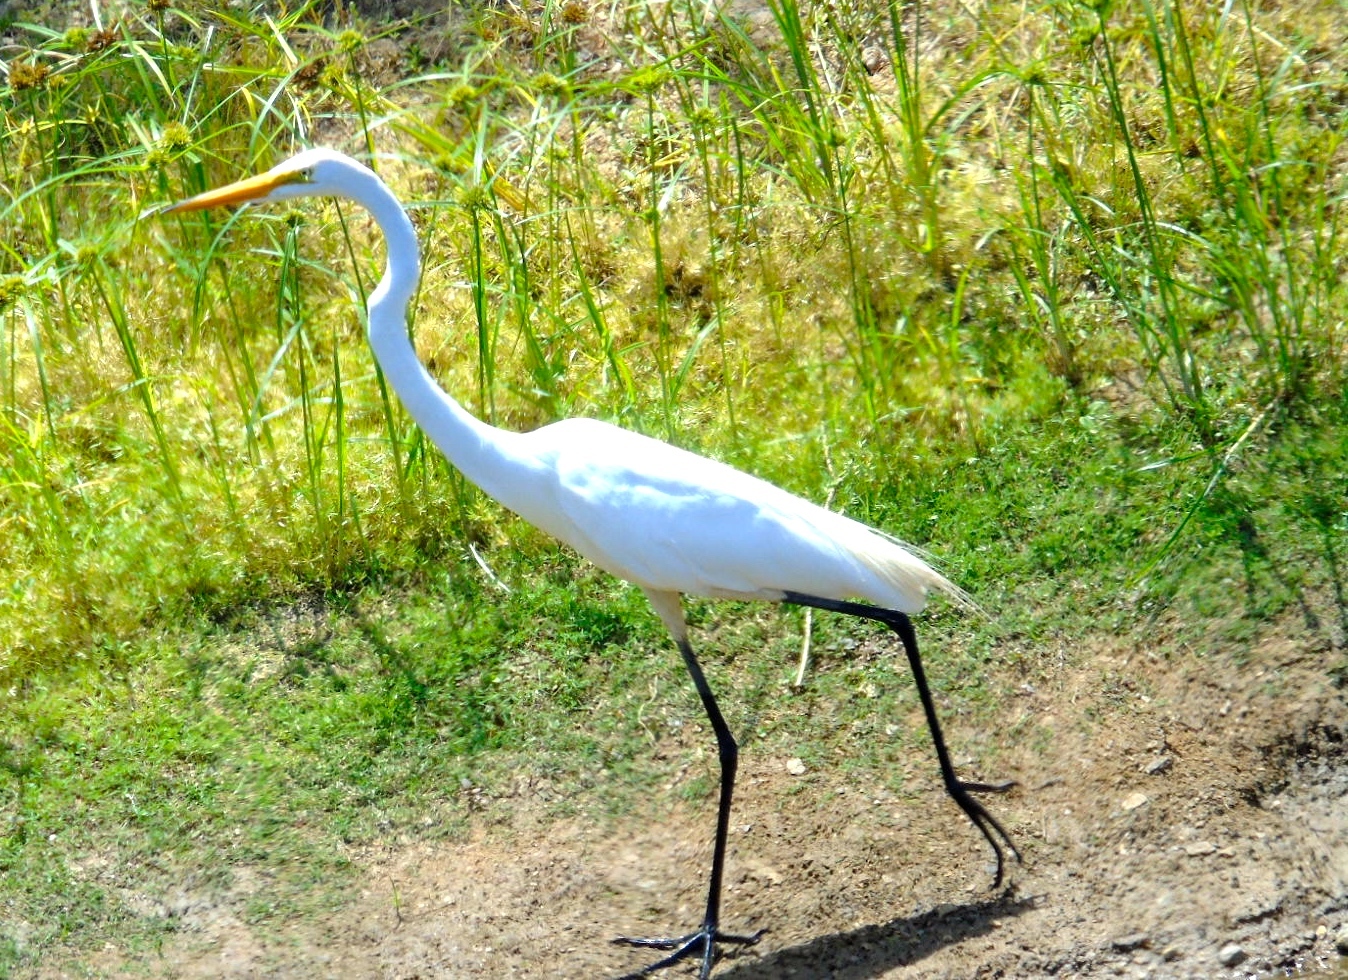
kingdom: Animalia
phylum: Chordata
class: Aves
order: Pelecaniformes
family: Ardeidae
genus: Ardea
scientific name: Ardea alba
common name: Great egret
